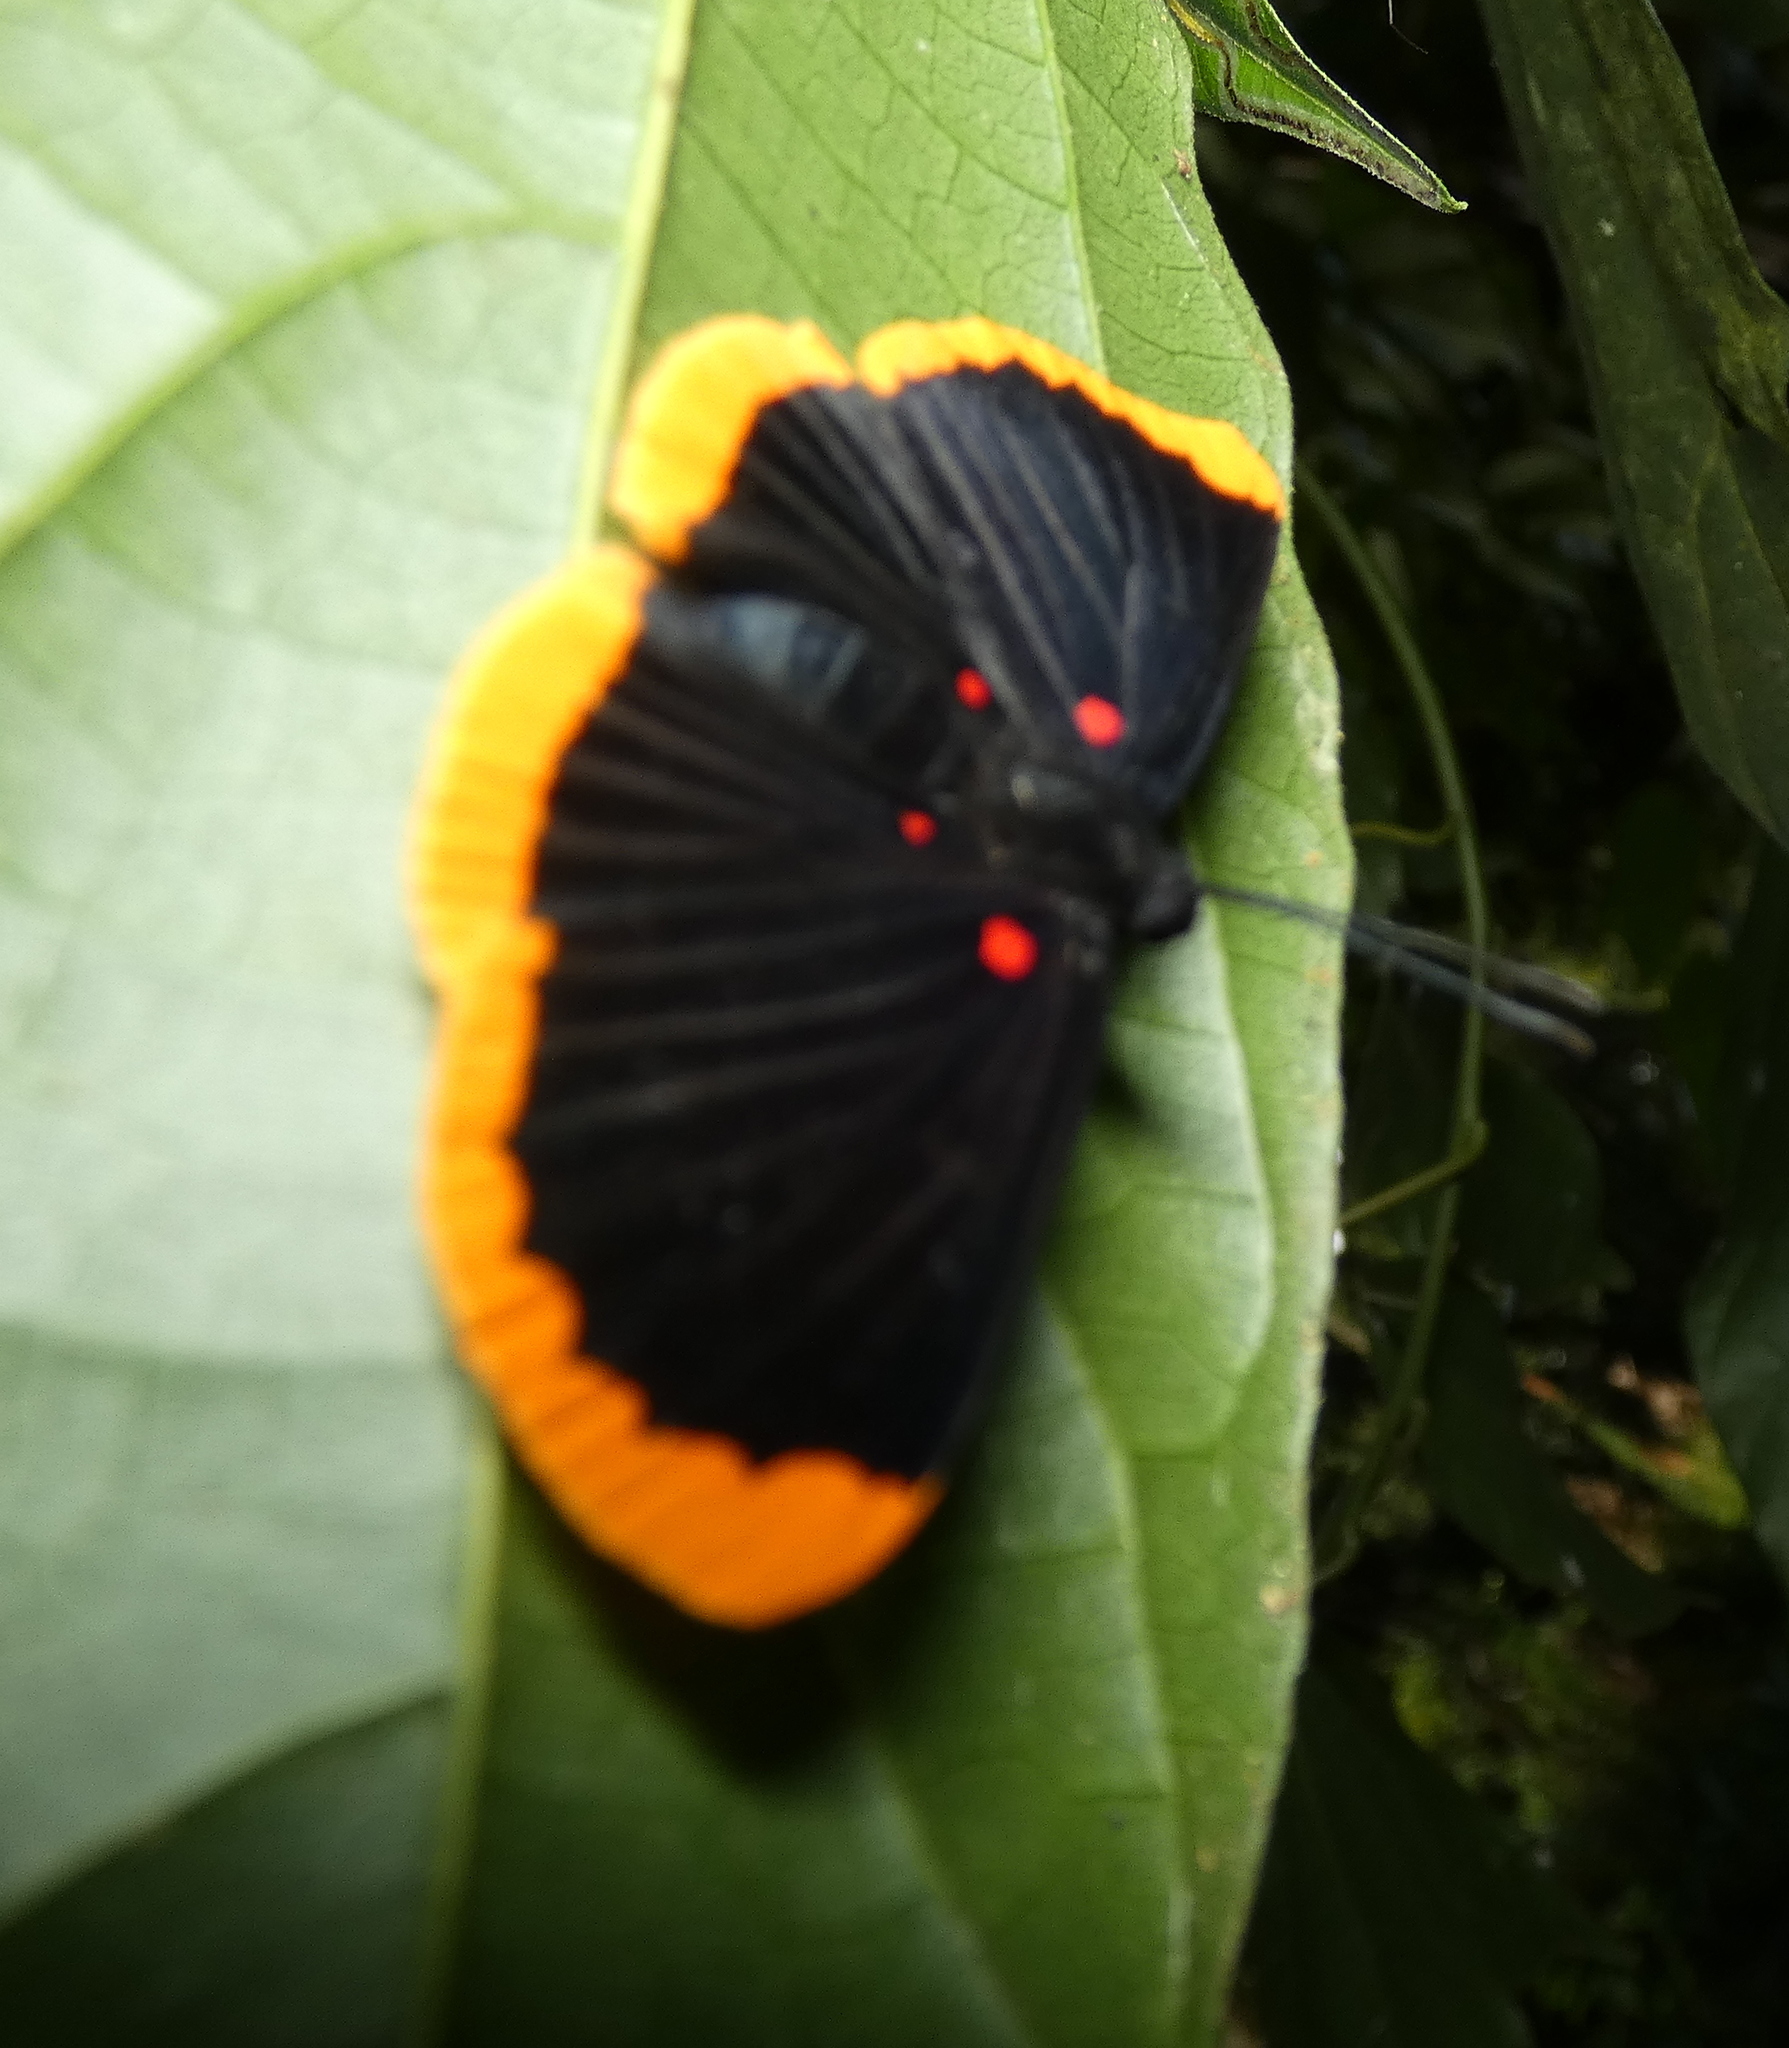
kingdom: Animalia
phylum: Arthropoda
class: Insecta
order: Lepidoptera
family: Lycaenidae
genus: Melanis
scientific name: Melanis smithiae
